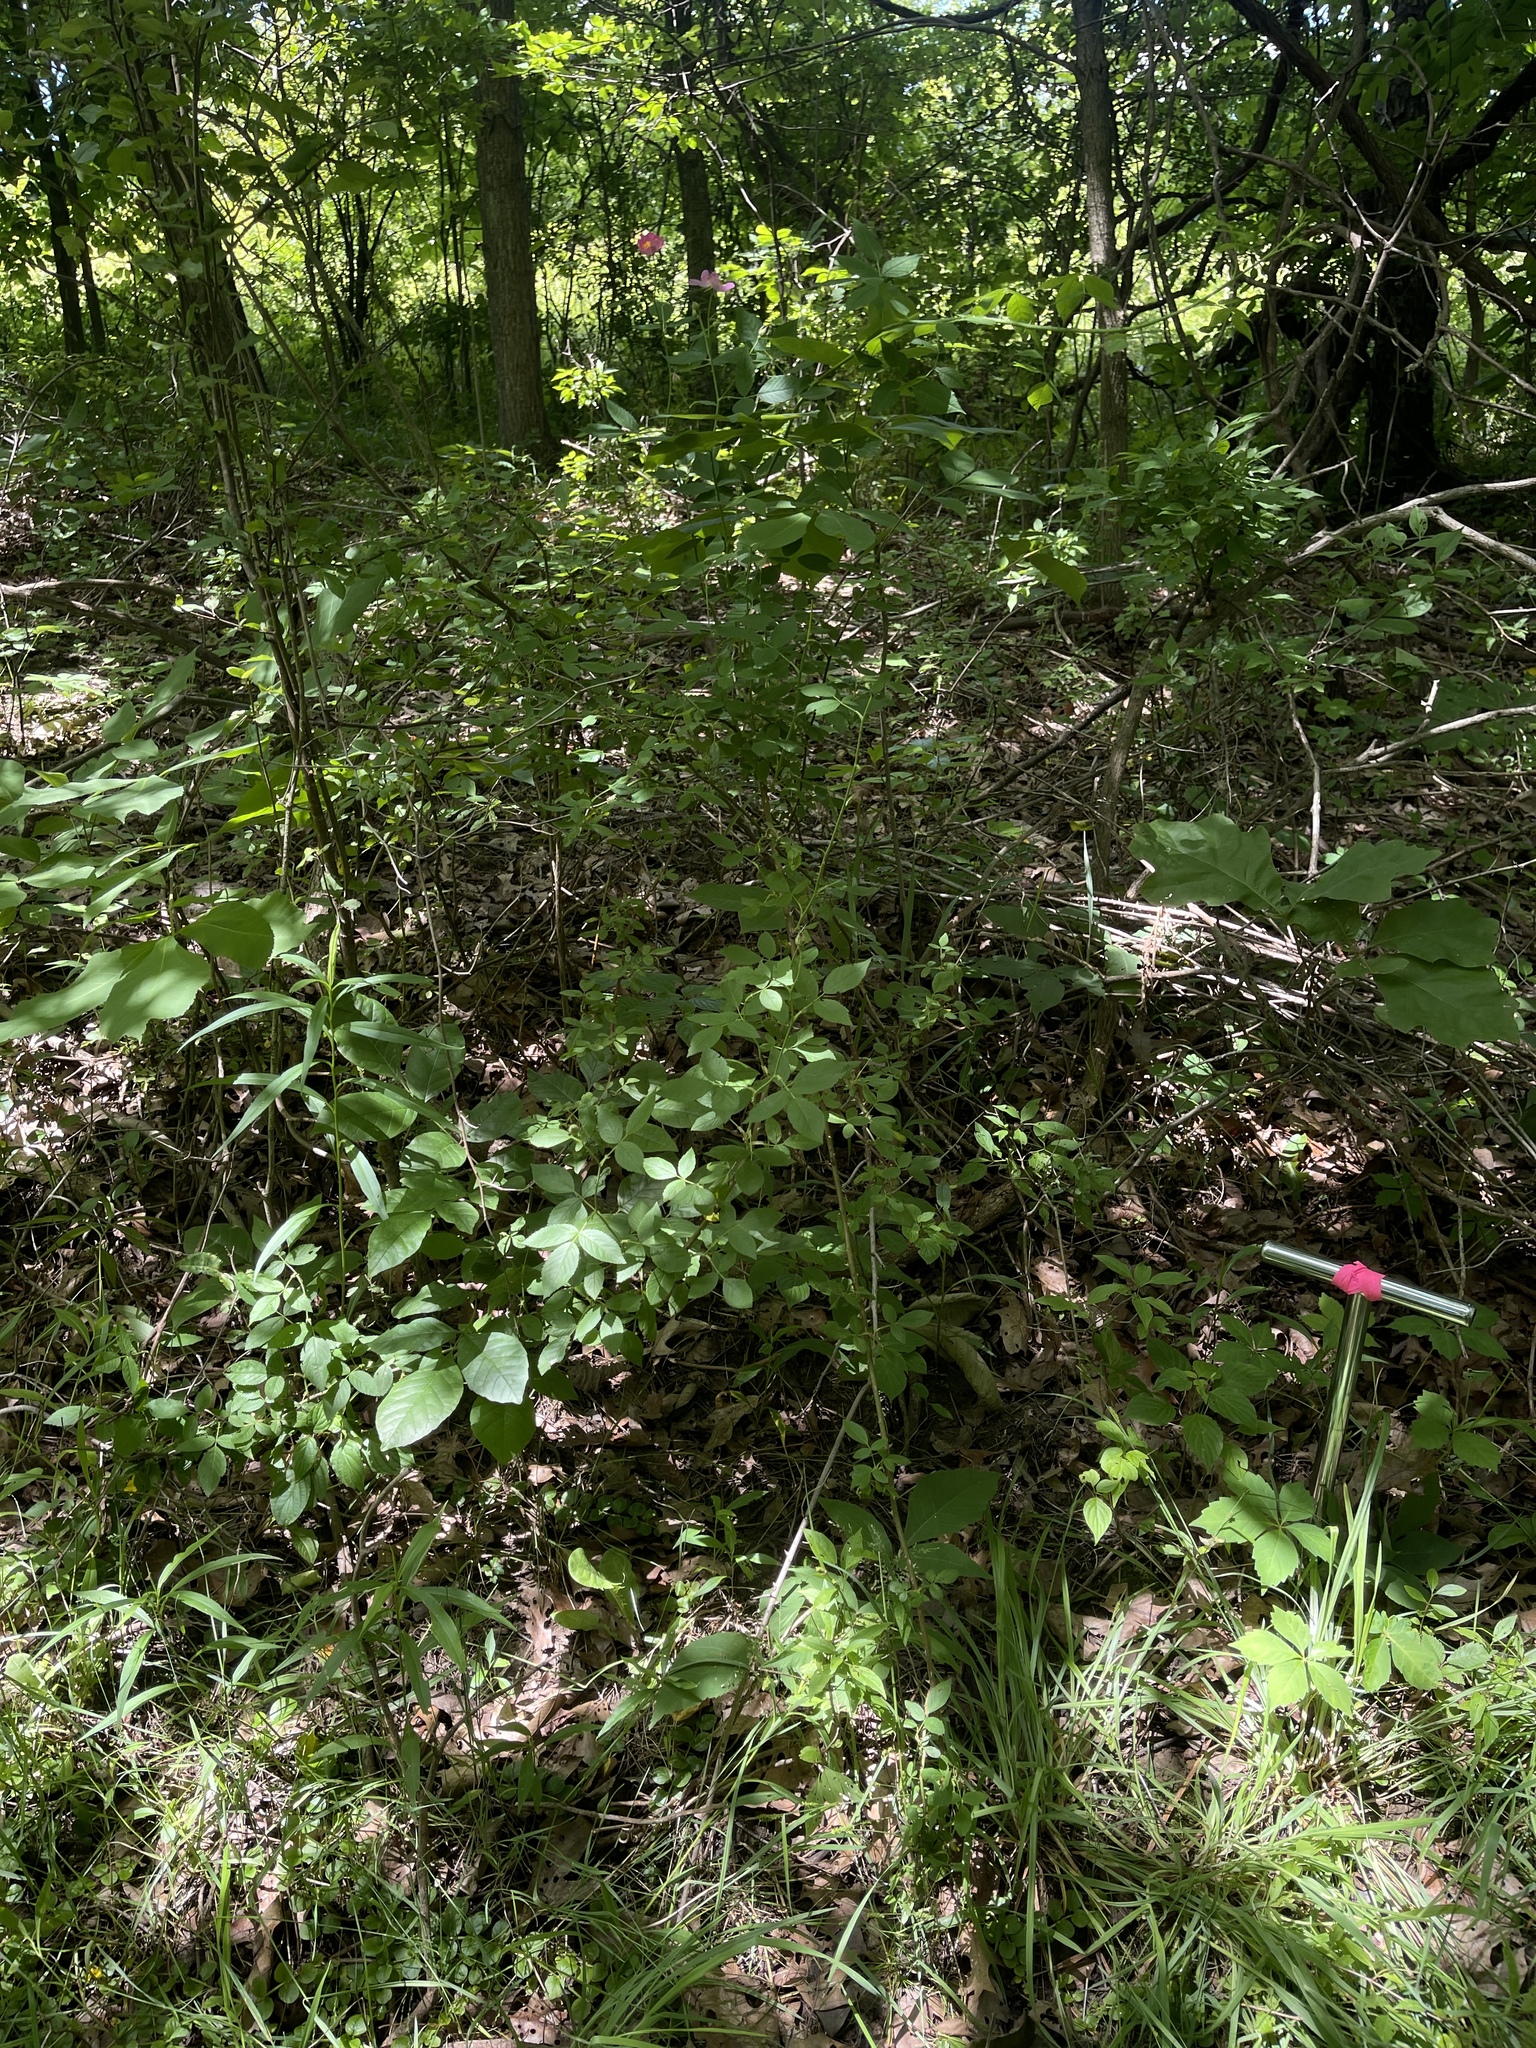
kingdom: Plantae
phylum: Tracheophyta
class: Magnoliopsida
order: Rosales
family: Rosaceae
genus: Rosa
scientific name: Rosa setigera
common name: Prairie rose
